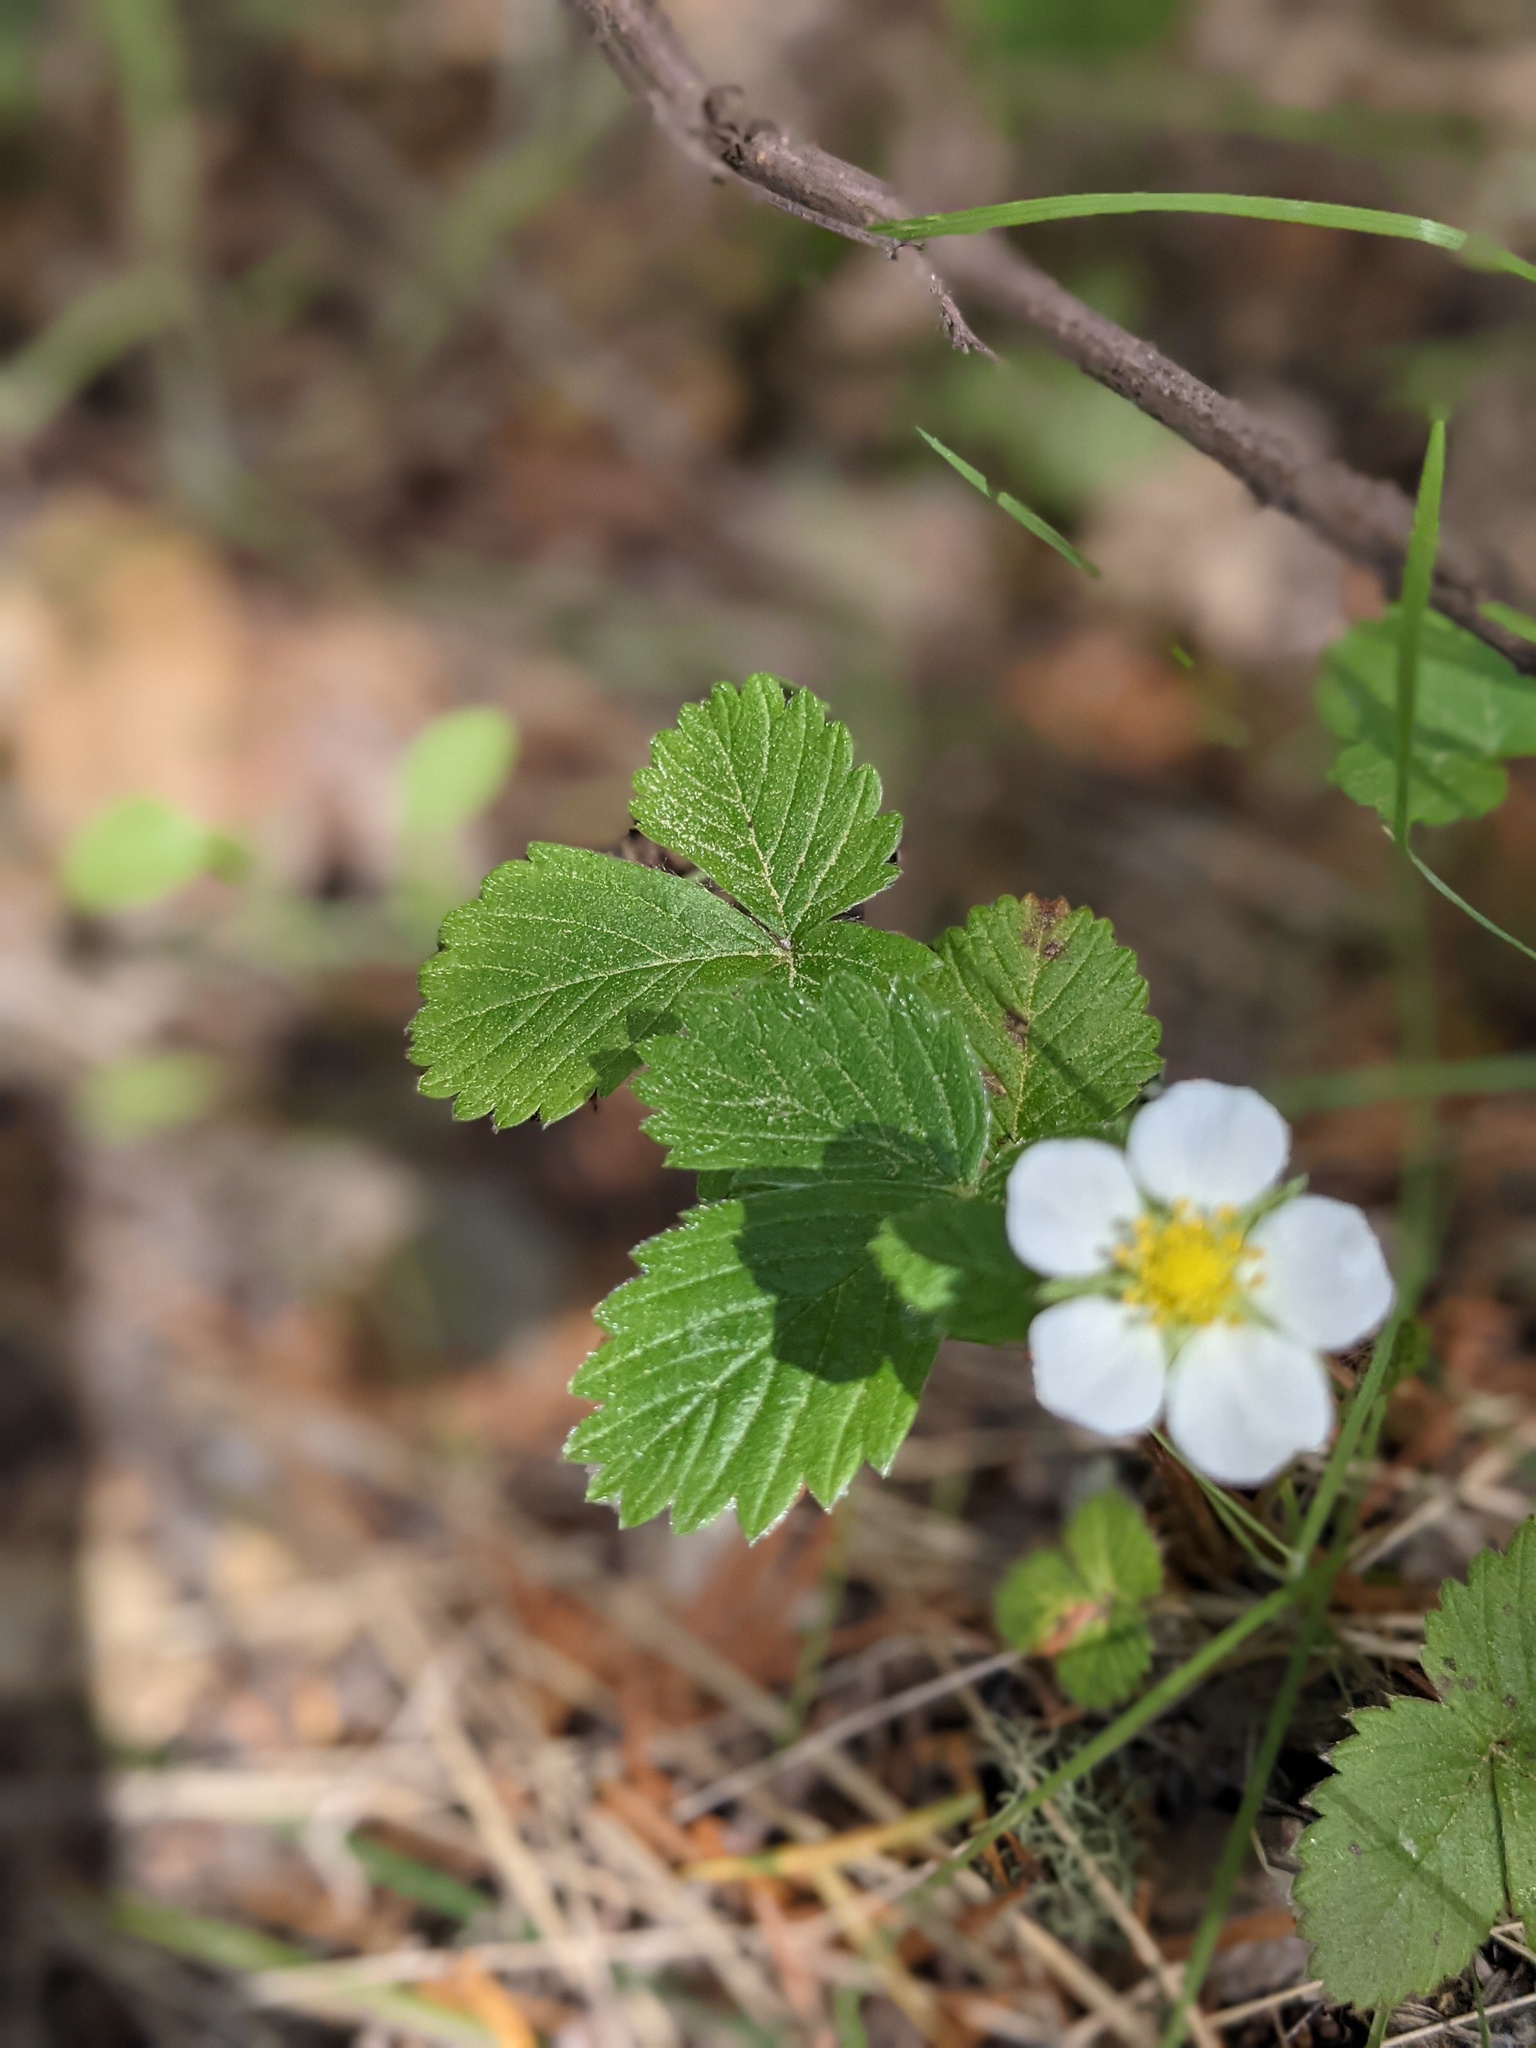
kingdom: Plantae
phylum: Tracheophyta
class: Magnoliopsida
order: Rosales
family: Rosaceae
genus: Fragaria
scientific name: Fragaria vesca
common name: Wild strawberry
